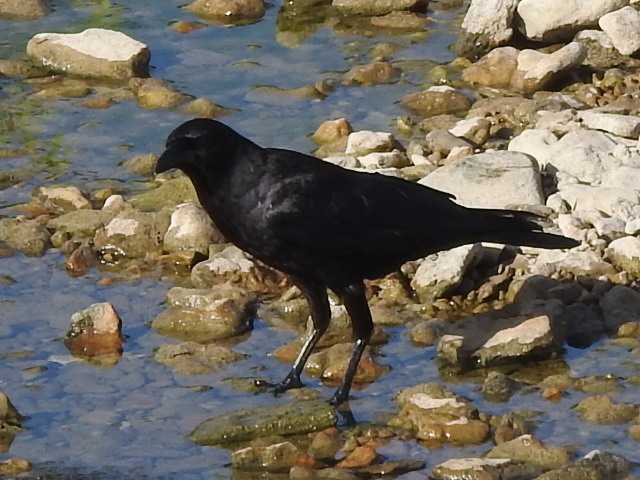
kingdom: Animalia
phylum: Chordata
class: Aves
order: Passeriformes
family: Corvidae
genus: Corvus
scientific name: Corvus brachyrhynchos
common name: American crow
